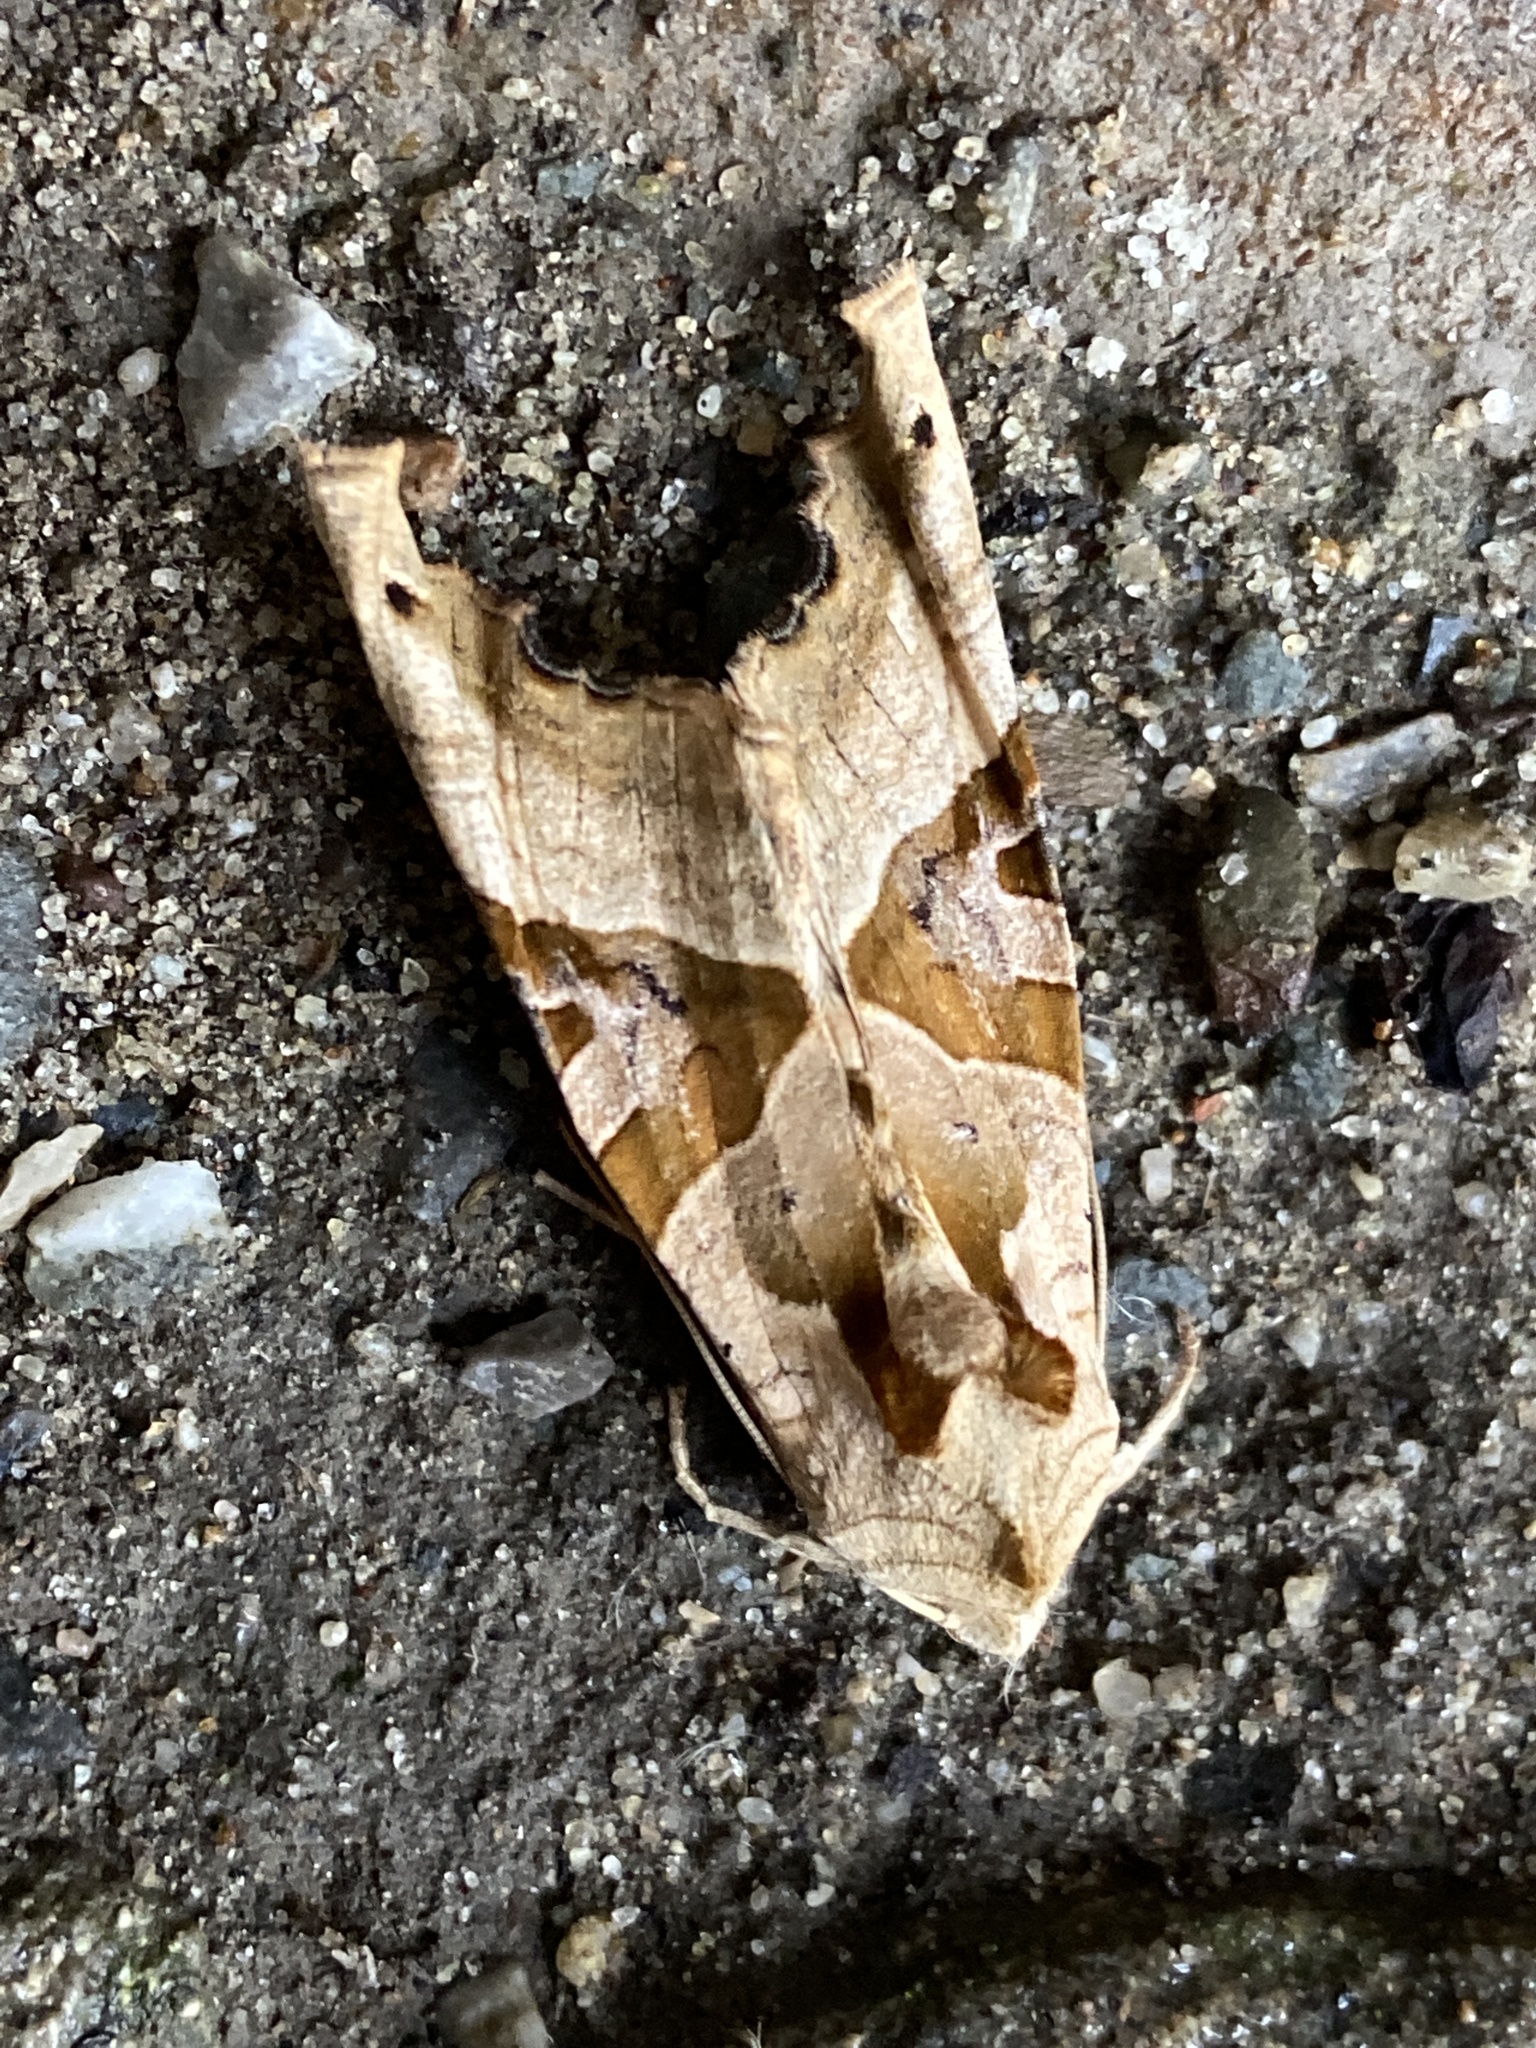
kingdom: Animalia
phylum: Arthropoda
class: Insecta
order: Lepidoptera
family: Noctuidae
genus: Phlogophora
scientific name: Phlogophora meticulosa
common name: Angle shades
